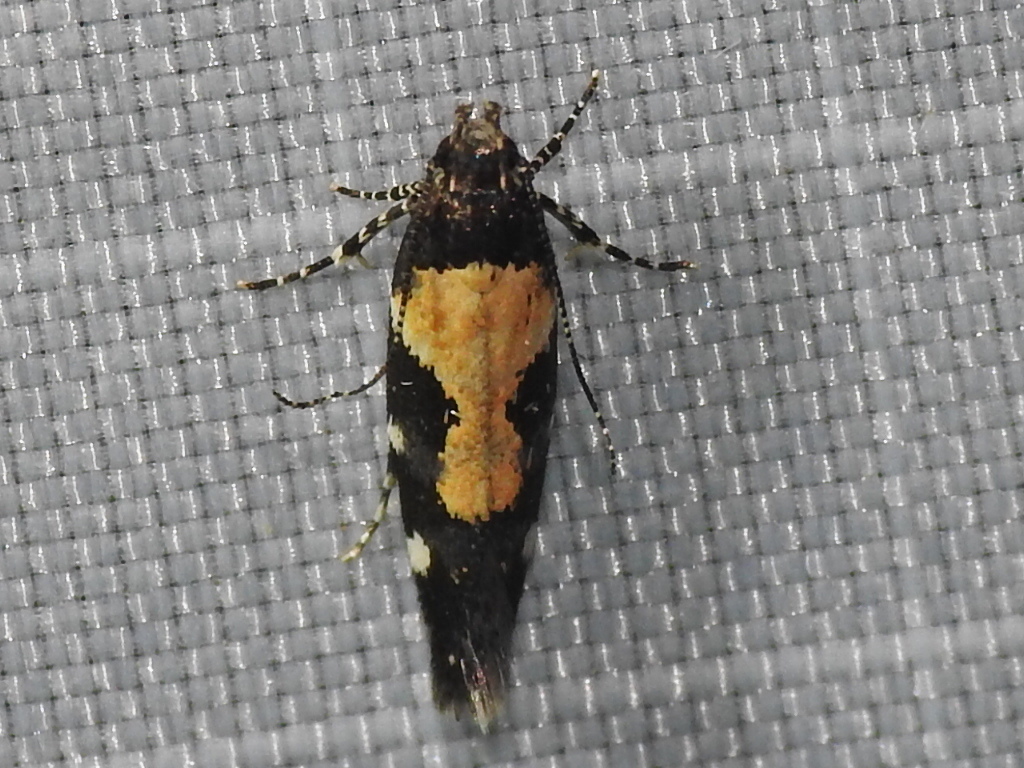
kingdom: Animalia
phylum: Arthropoda
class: Insecta
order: Lepidoptera
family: Gelechiidae
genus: Stegasta
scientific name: Stegasta bosqueella
